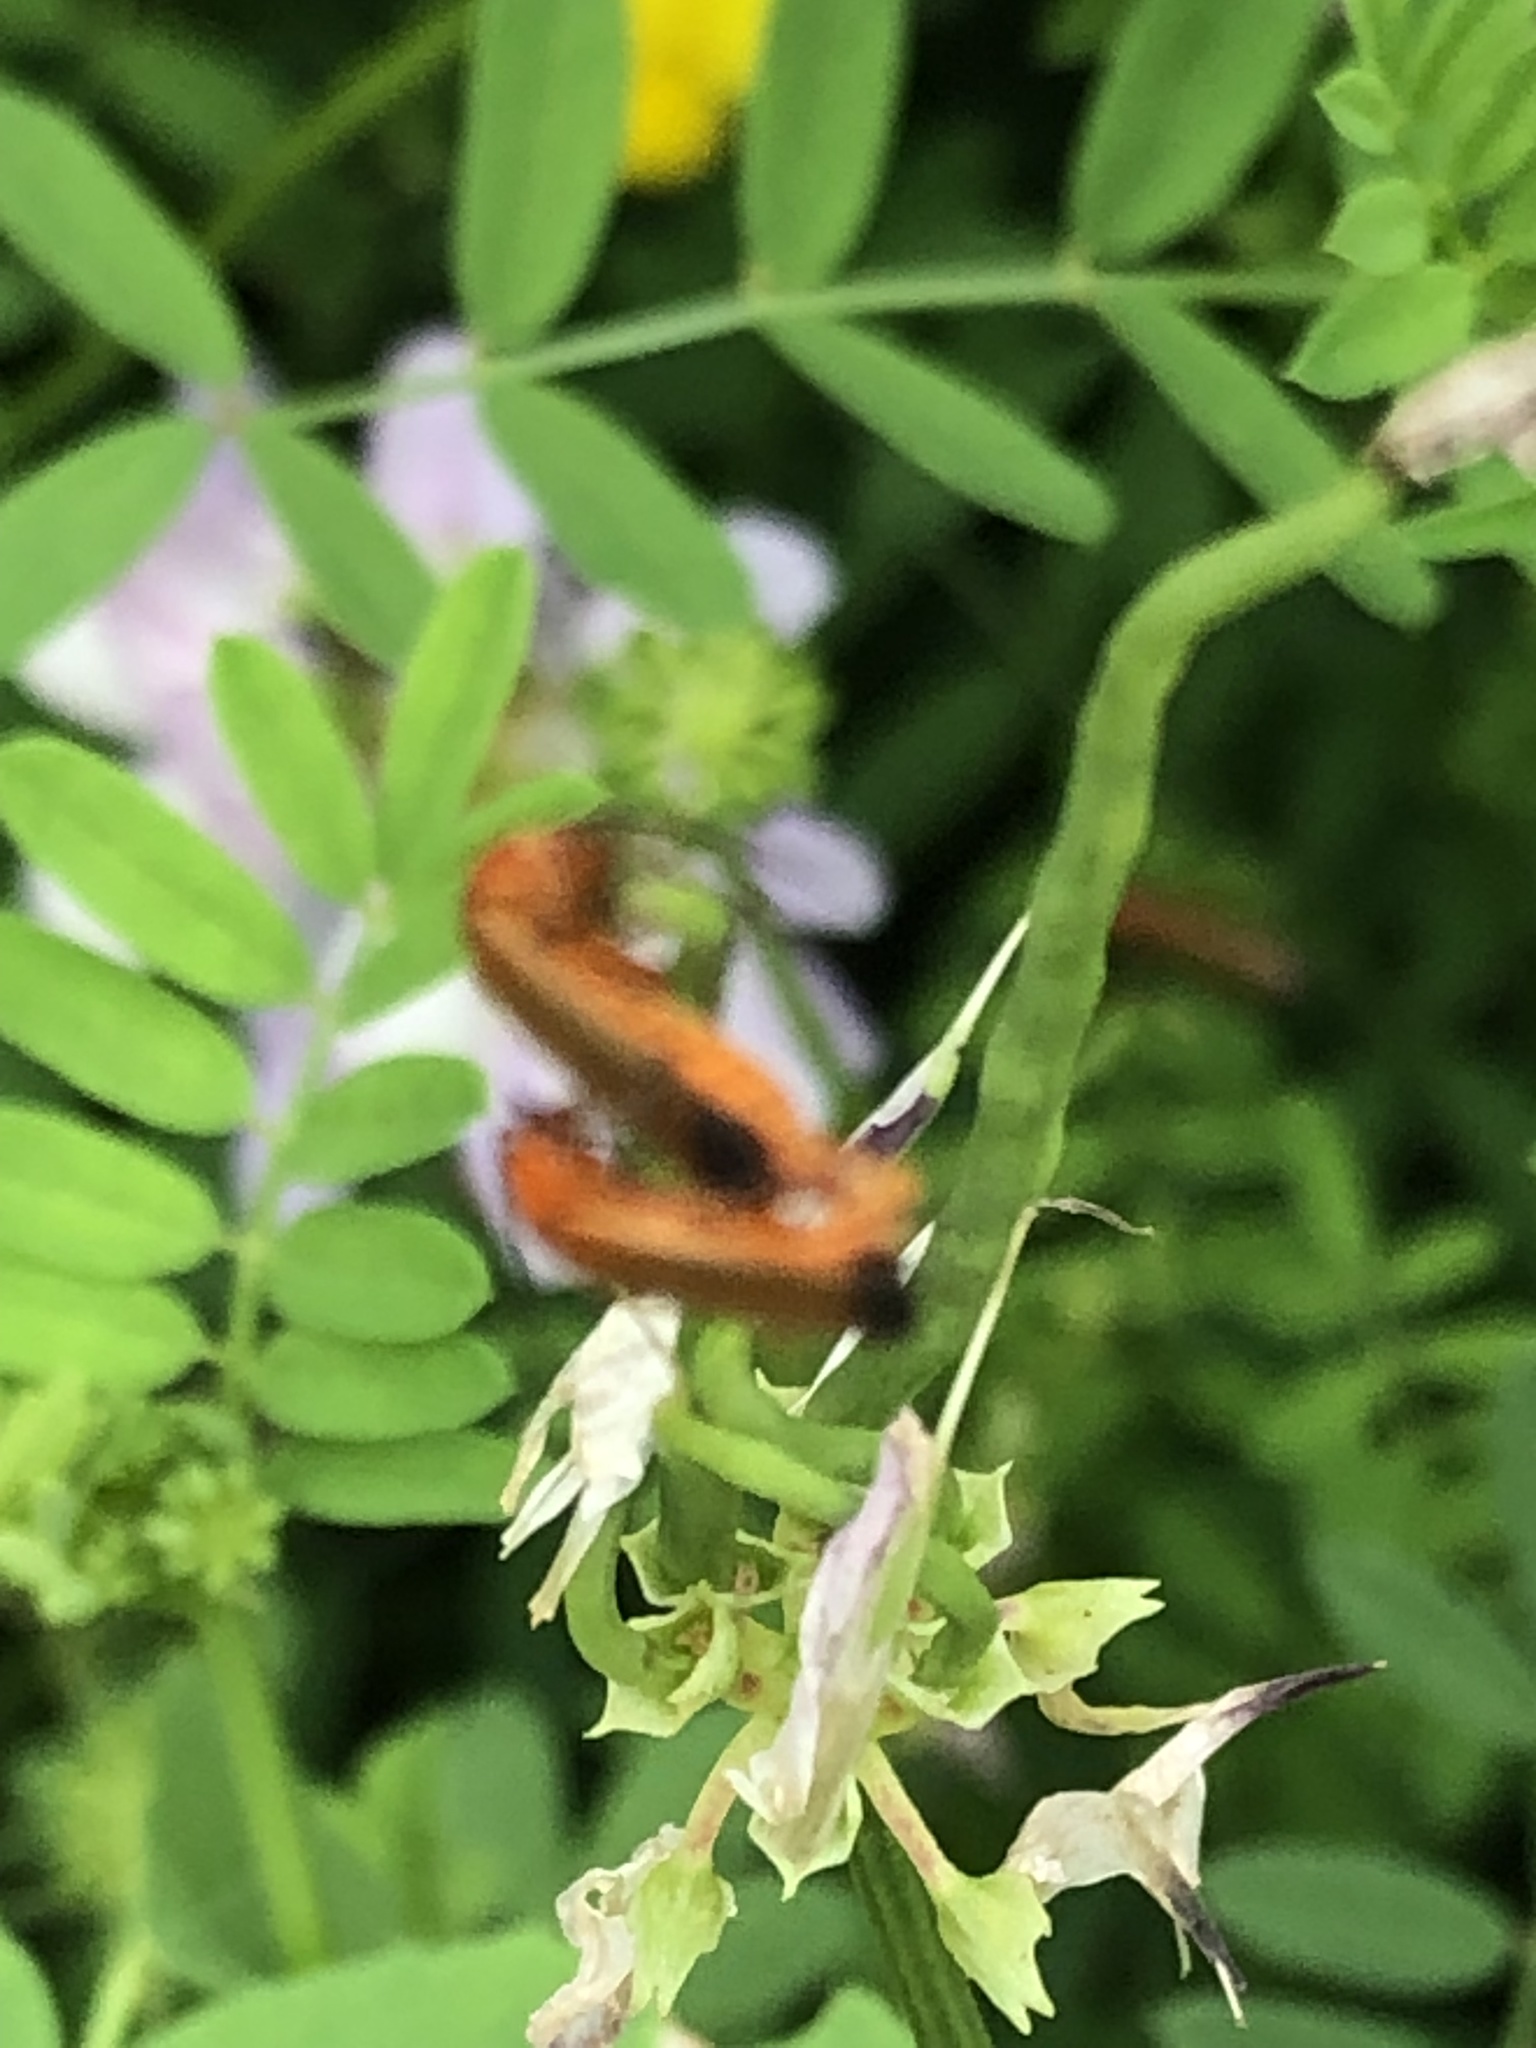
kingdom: Animalia
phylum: Arthropoda
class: Insecta
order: Coleoptera
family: Cantharidae
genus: Rhagonycha
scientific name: Rhagonycha fulva
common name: Common red soldier beetle
